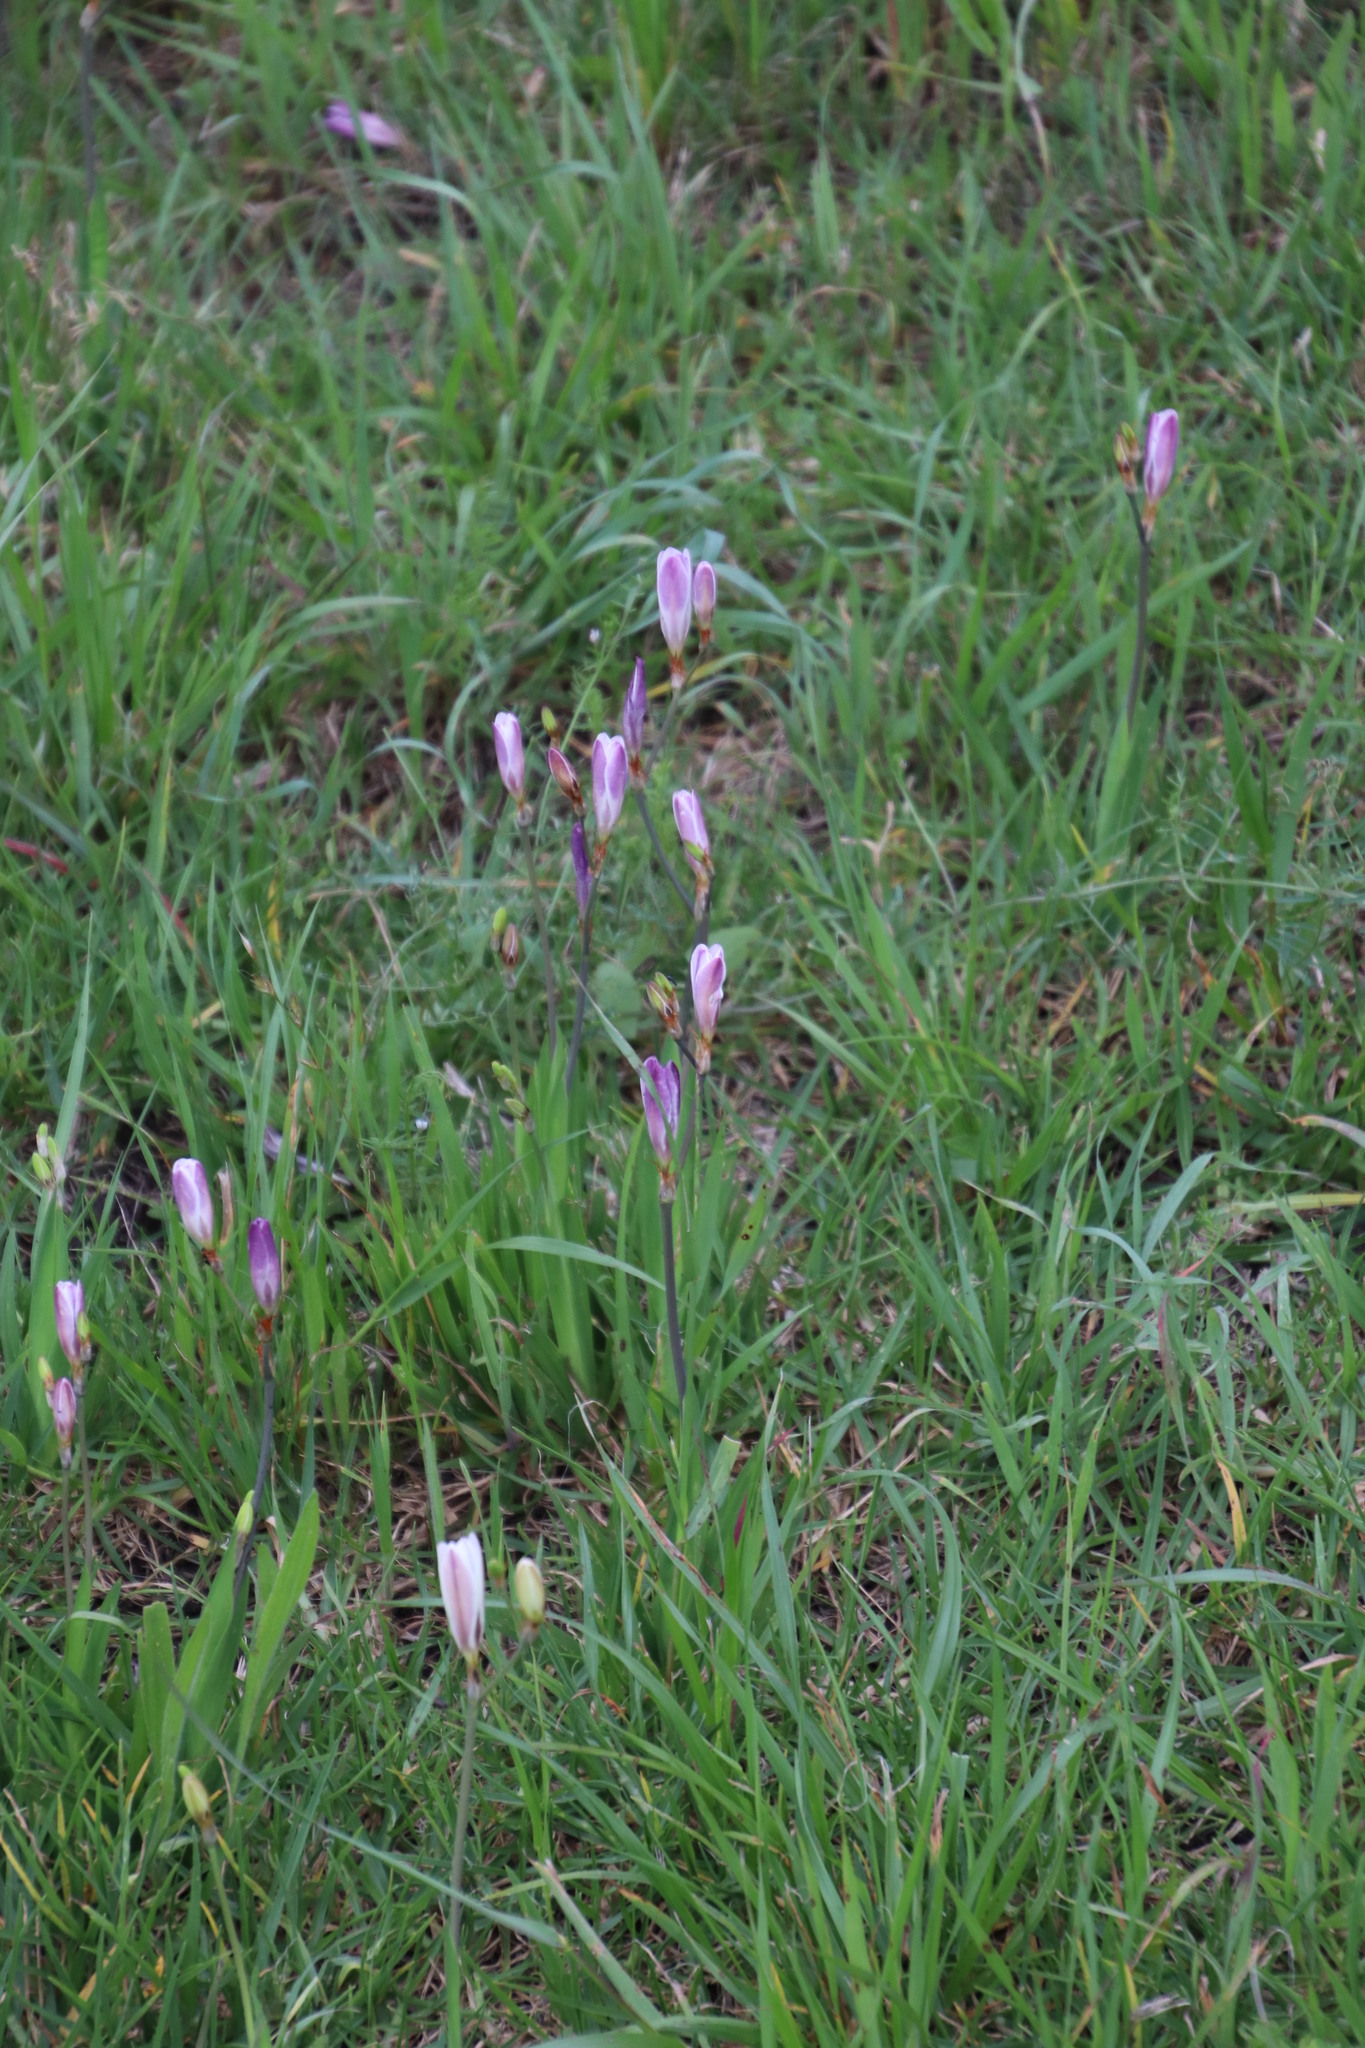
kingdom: Plantae
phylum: Tracheophyta
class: Liliopsida
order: Asparagales
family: Iridaceae
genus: Sparaxis
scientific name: Sparaxis bulbifera
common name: Harlequin-flower
